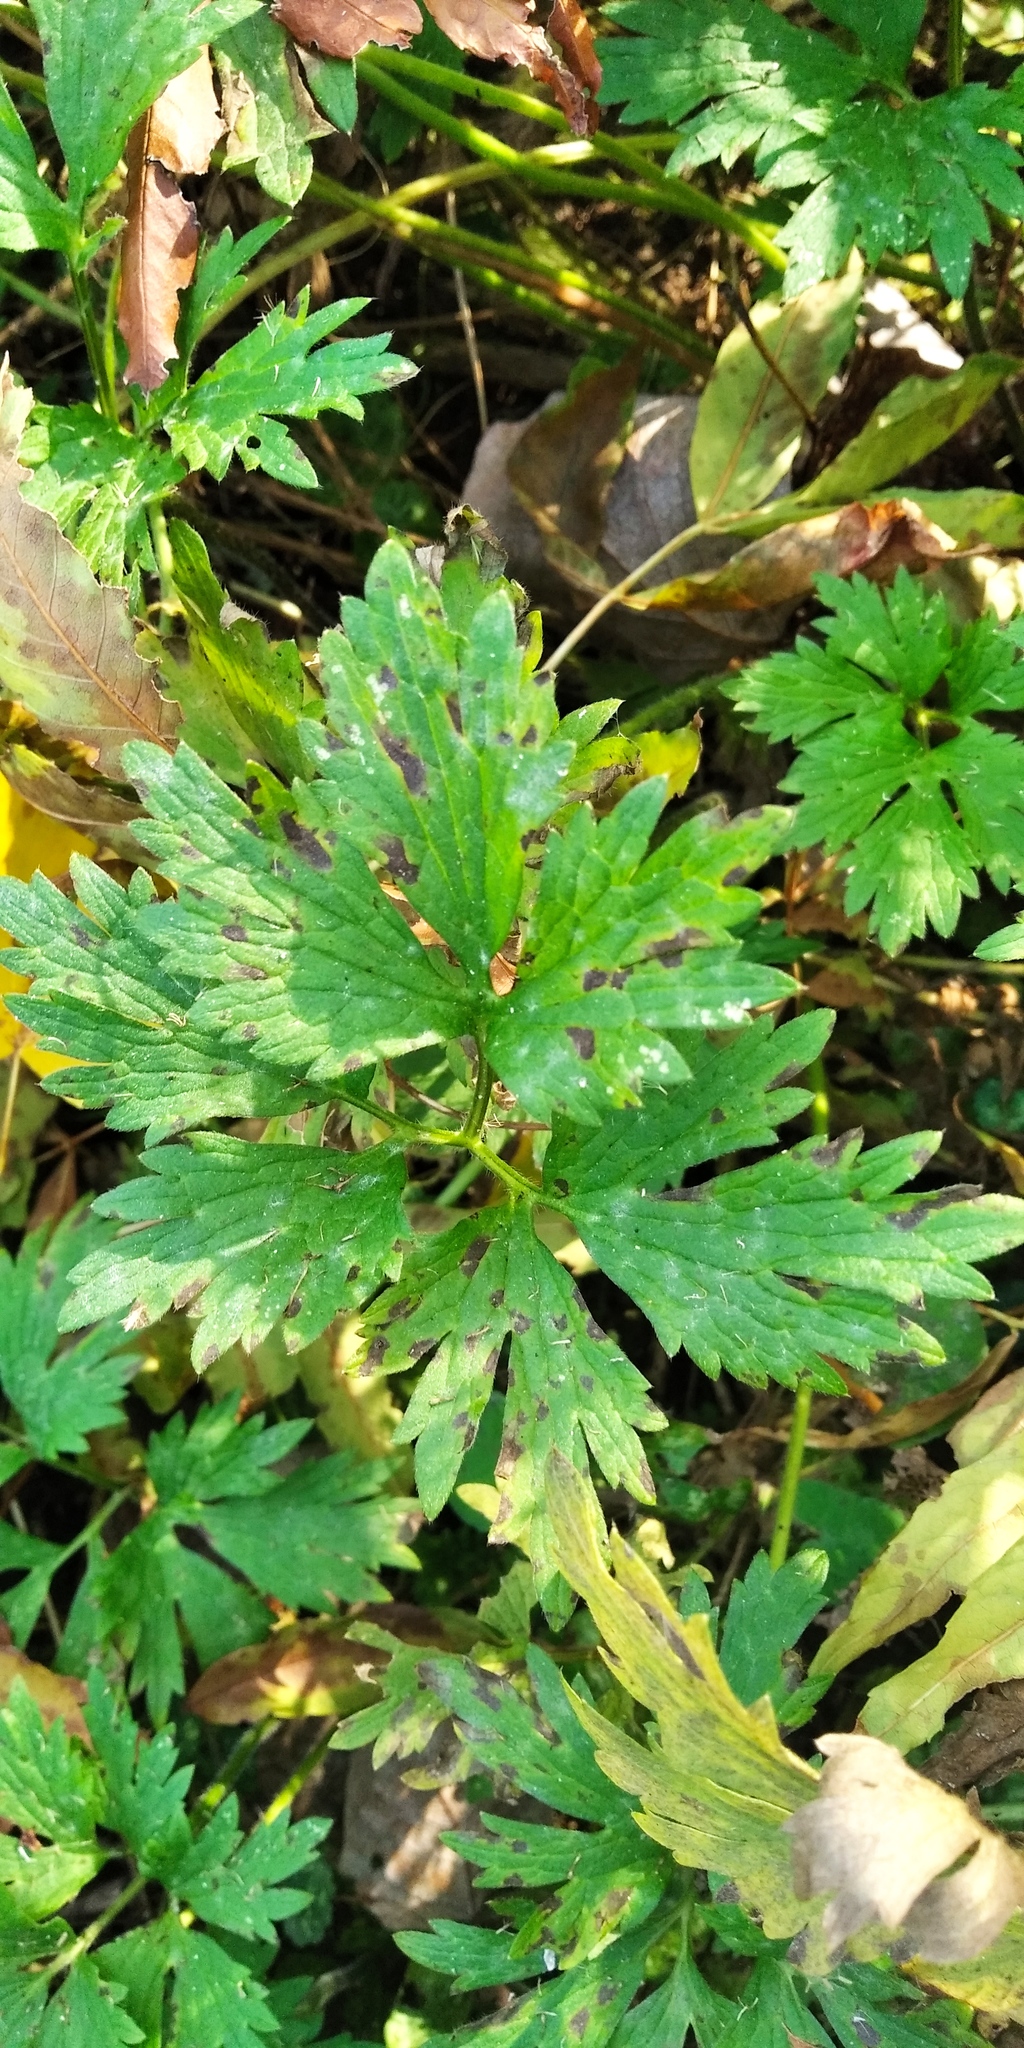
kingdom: Plantae
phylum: Tracheophyta
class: Magnoliopsida
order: Ranunculales
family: Ranunculaceae
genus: Ranunculus
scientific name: Ranunculus repens
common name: Creeping buttercup
